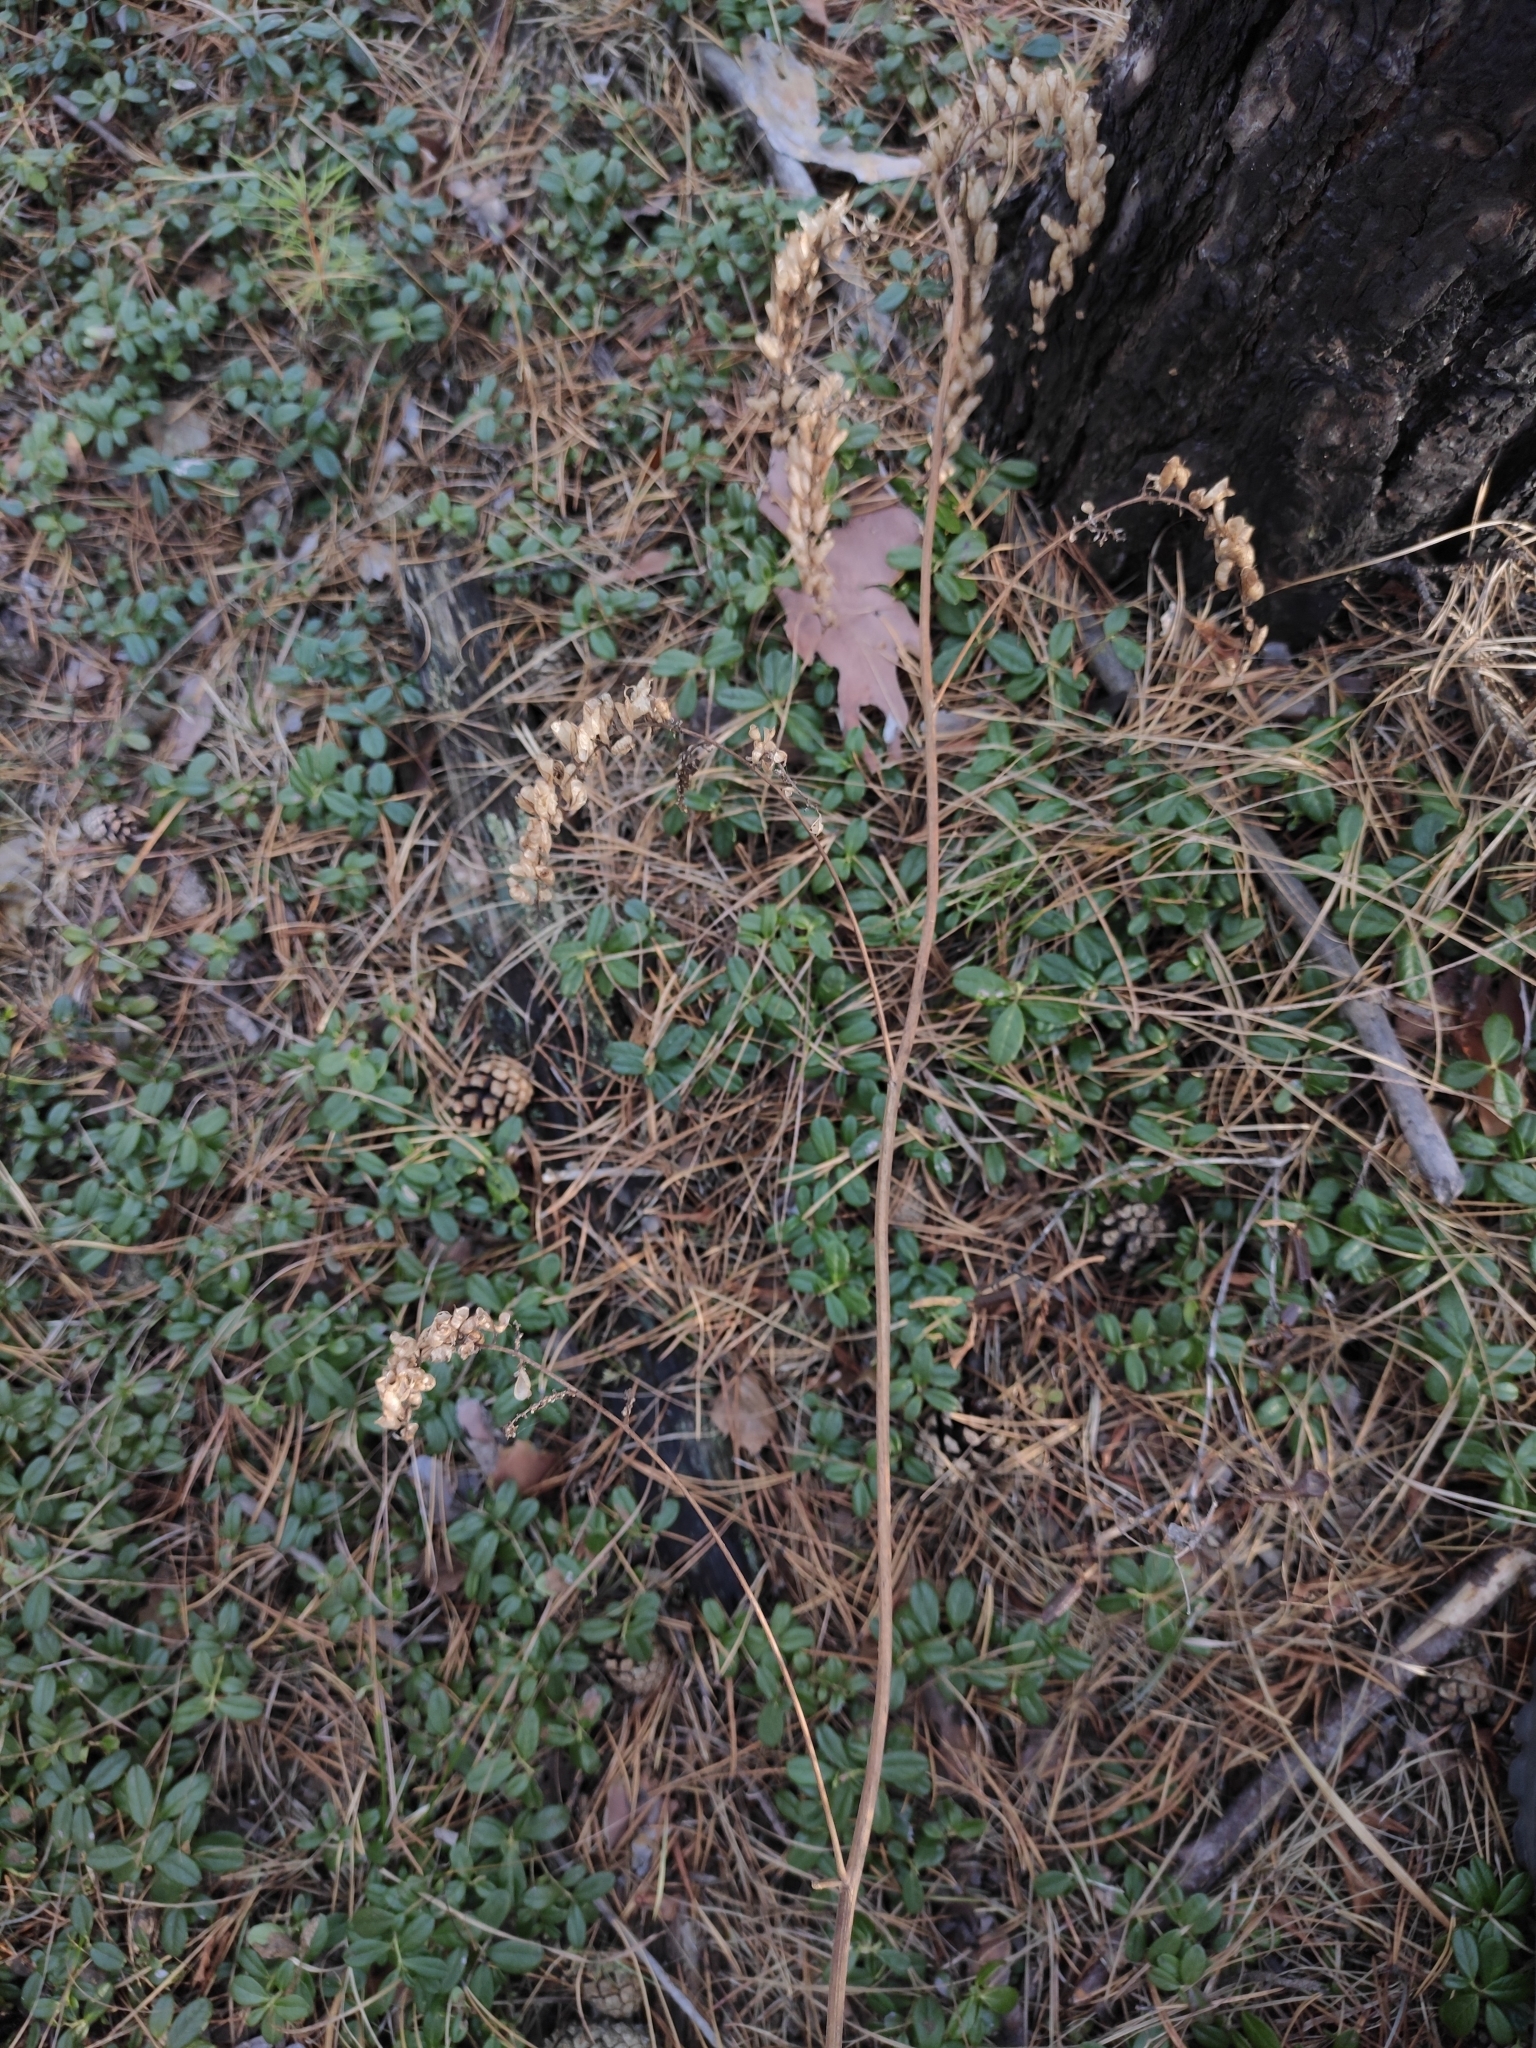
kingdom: Plantae
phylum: Tracheophyta
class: Magnoliopsida
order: Ranunculales
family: Ranunculaceae
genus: Actaea
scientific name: Actaea cimicifuga
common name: Chinese cimicifuga
